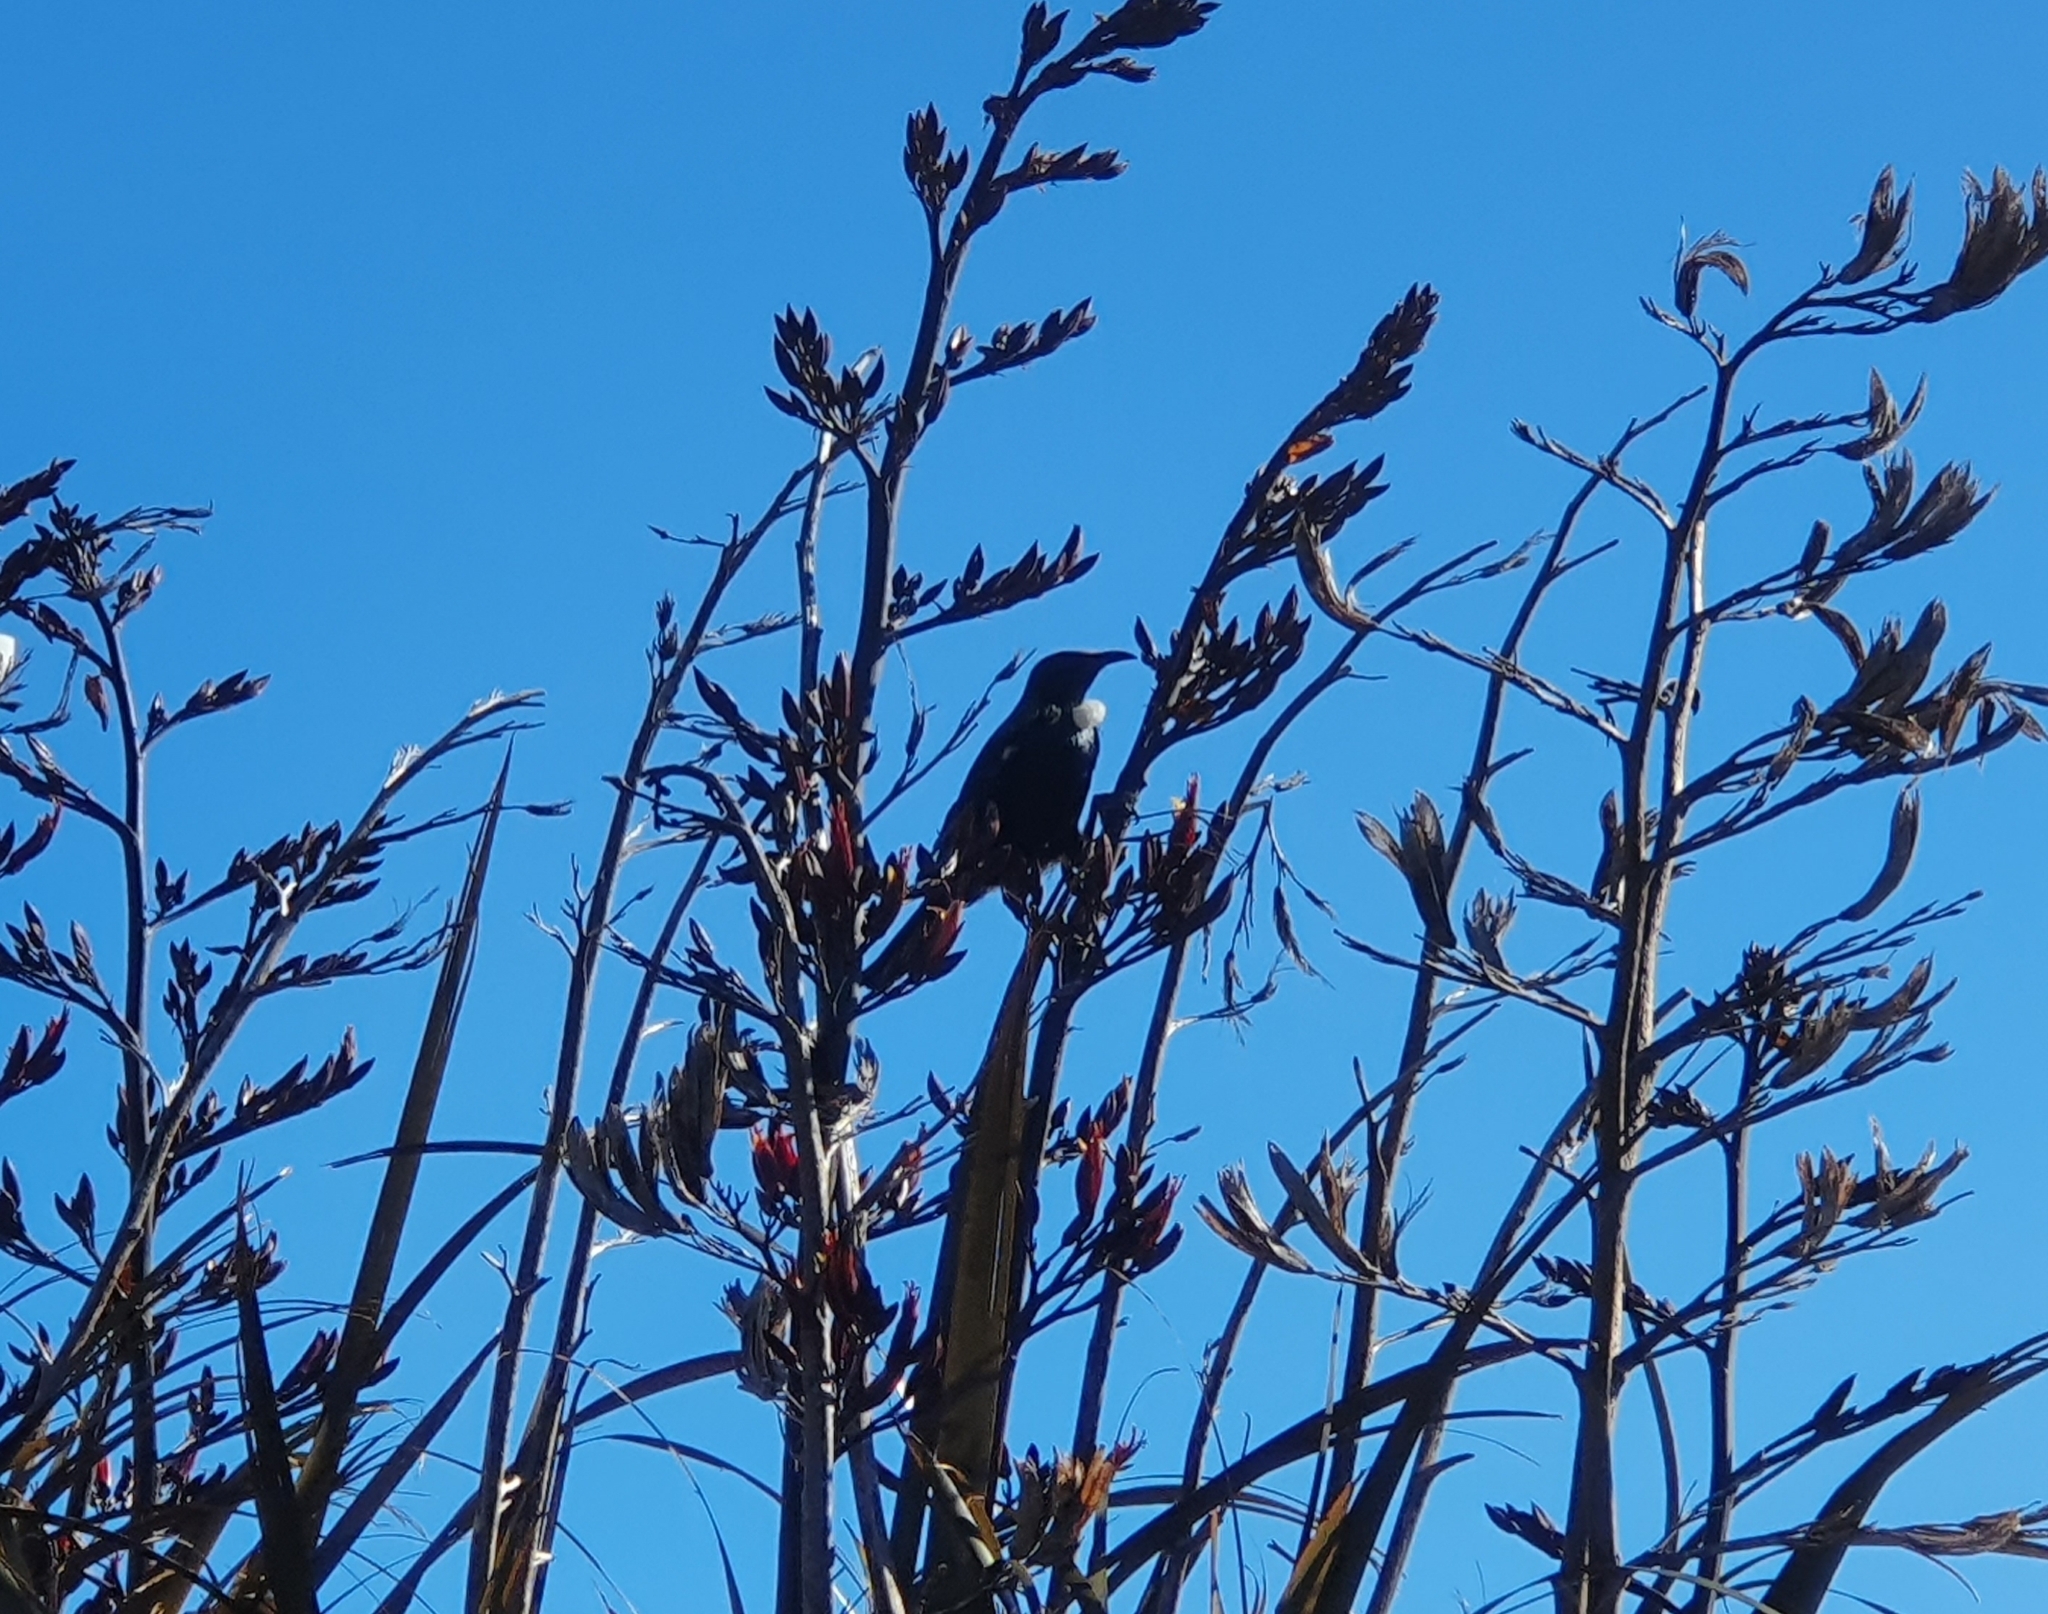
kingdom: Animalia
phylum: Chordata
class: Aves
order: Passeriformes
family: Meliphagidae
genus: Prosthemadera
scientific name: Prosthemadera novaeseelandiae
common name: Tui
